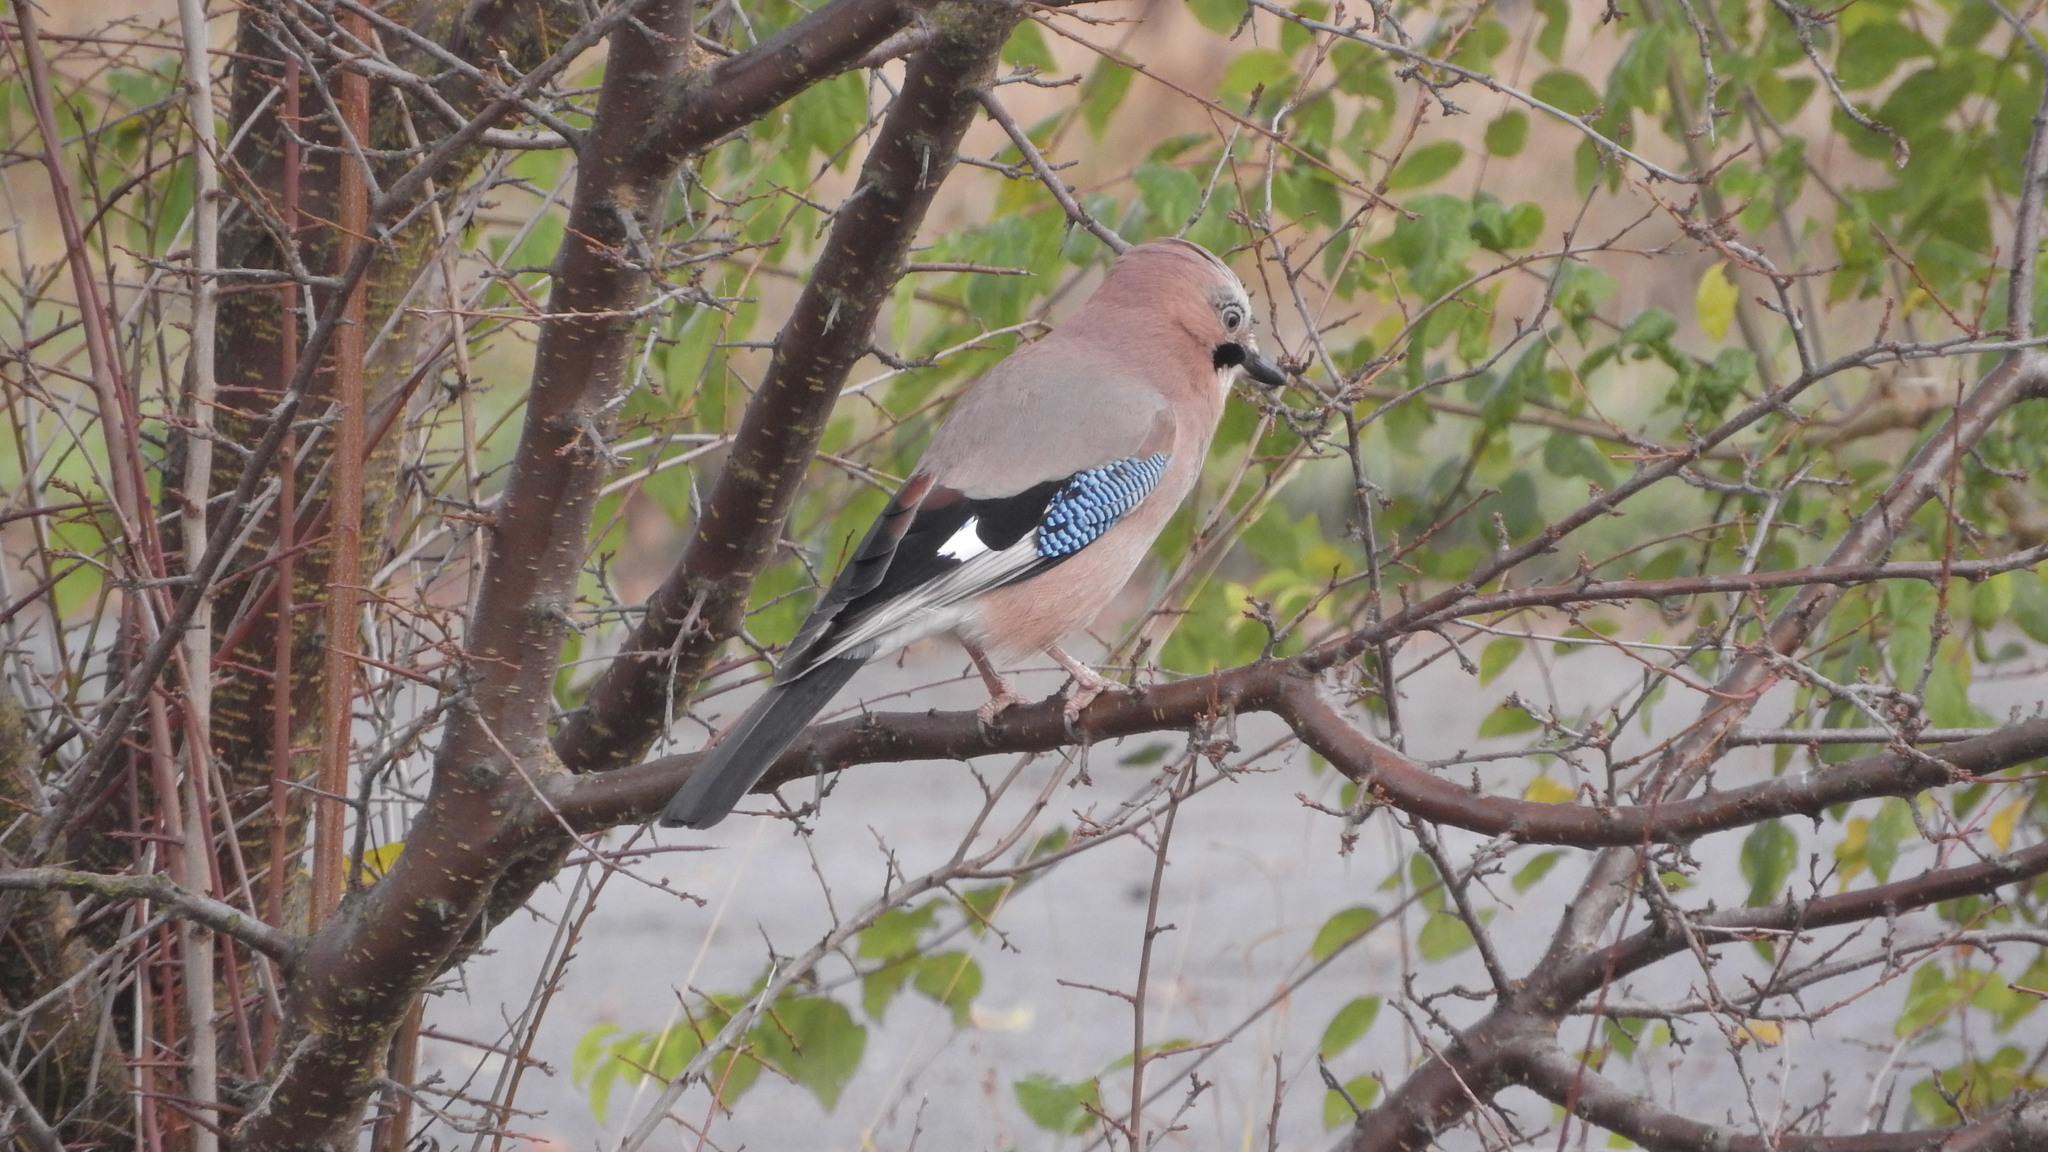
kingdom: Animalia
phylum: Chordata
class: Aves
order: Passeriformes
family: Corvidae
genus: Garrulus
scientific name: Garrulus glandarius
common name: Eurasian jay
